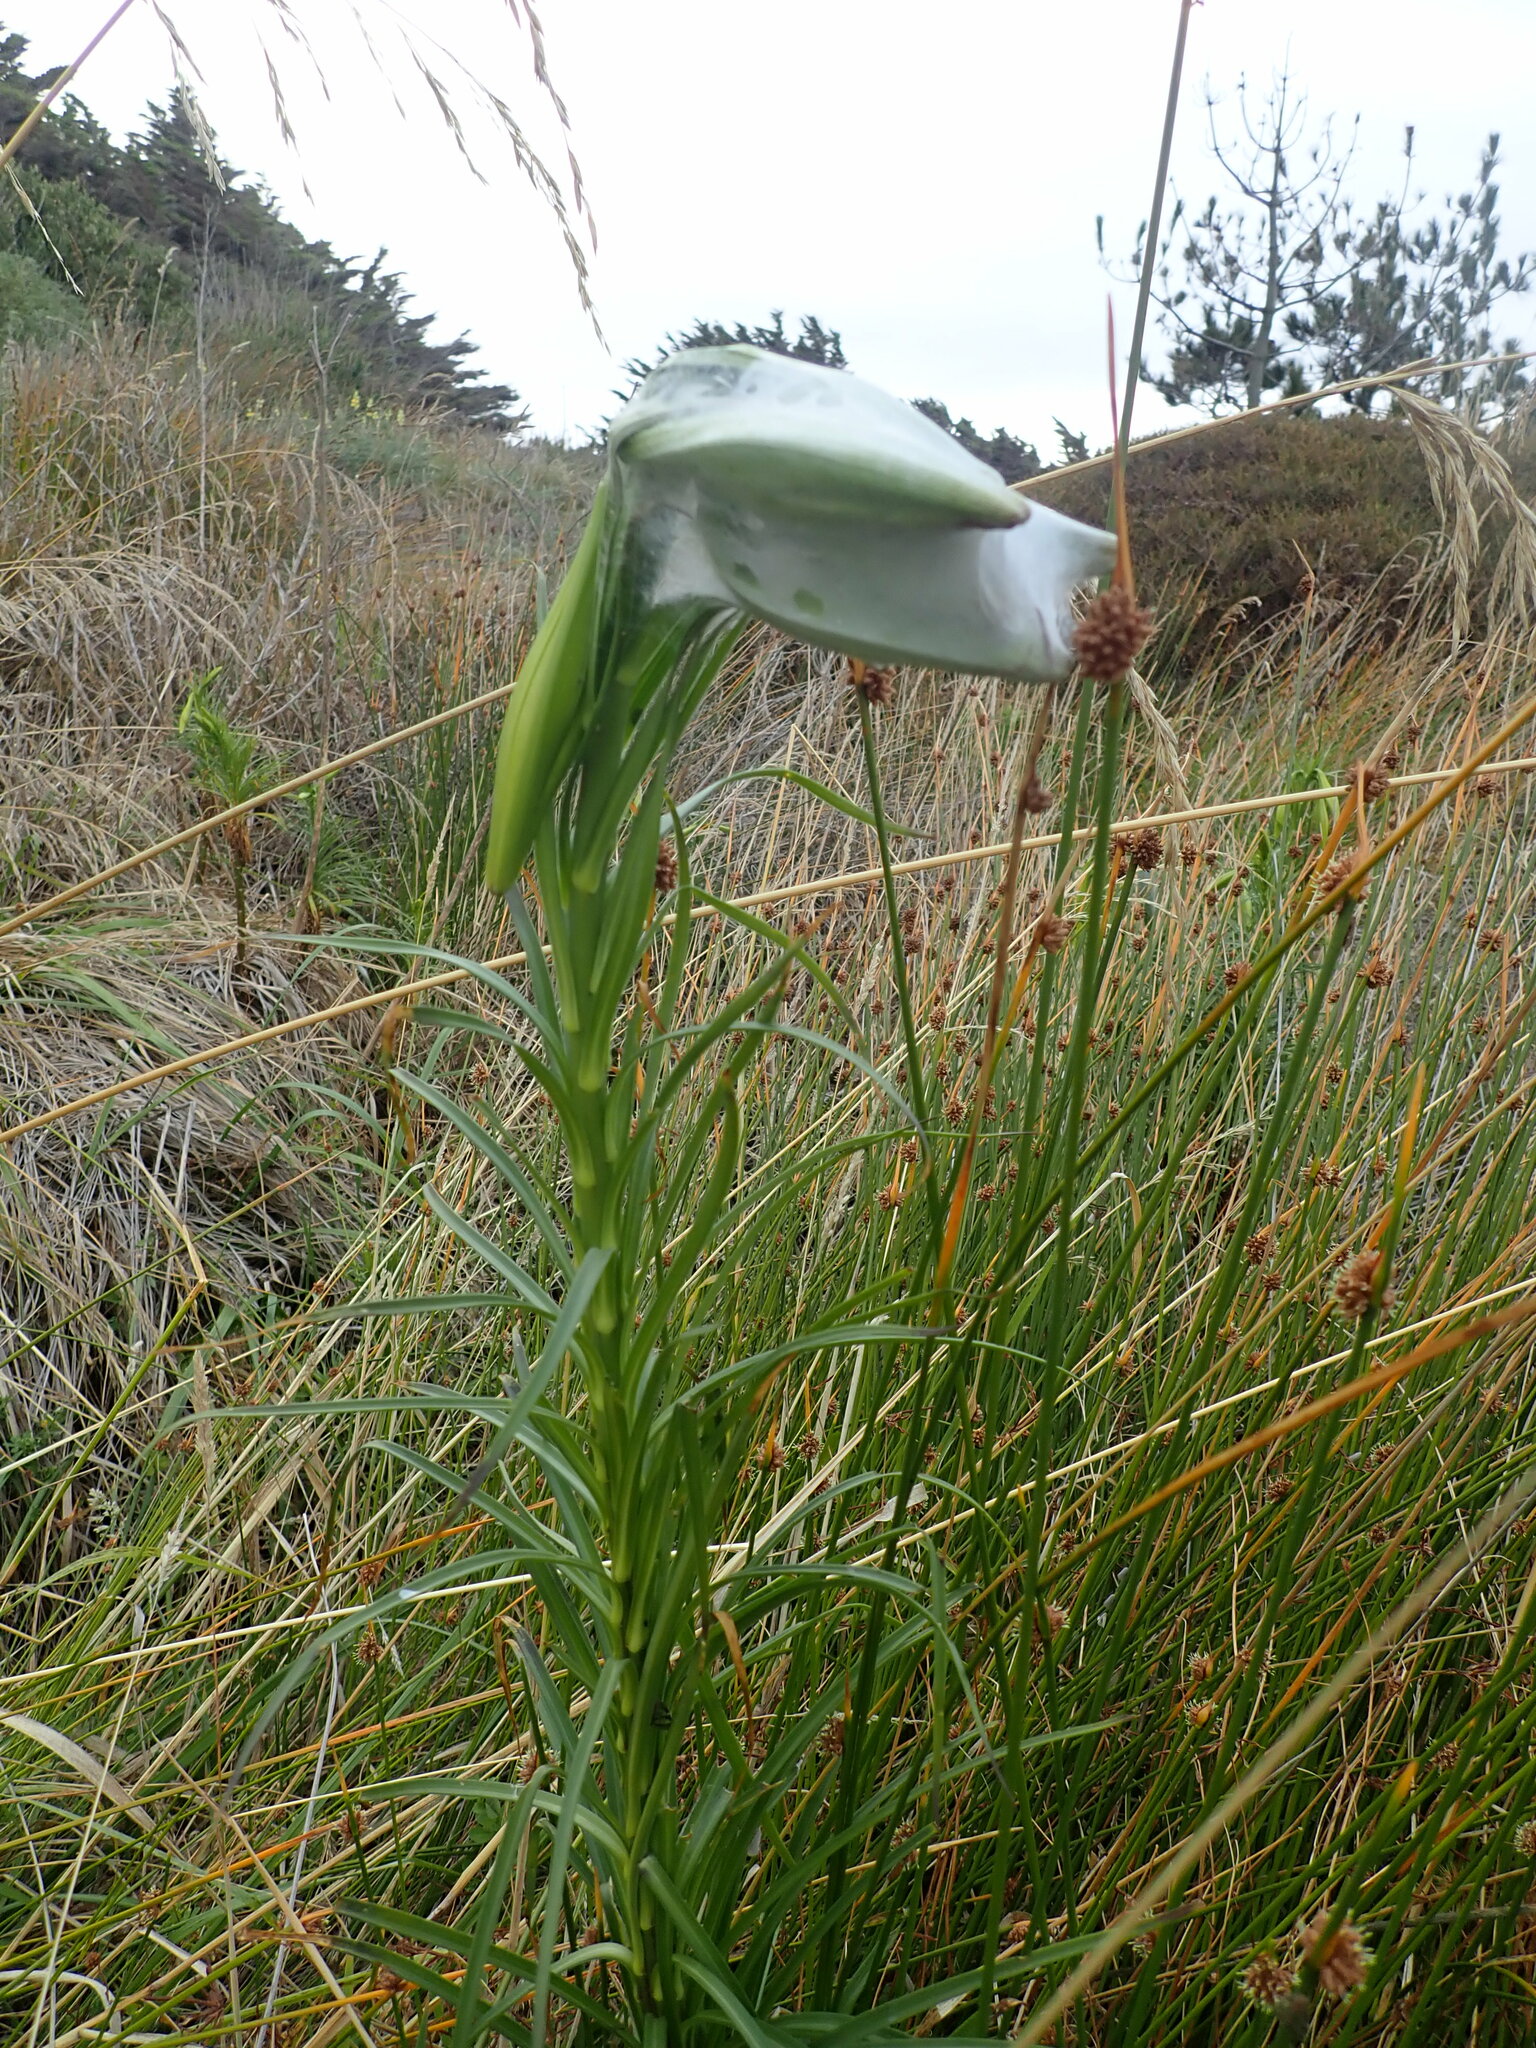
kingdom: Plantae
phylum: Tracheophyta
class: Liliopsida
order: Liliales
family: Liliaceae
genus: Lilium
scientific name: Lilium formosanum
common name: Formosa lily
